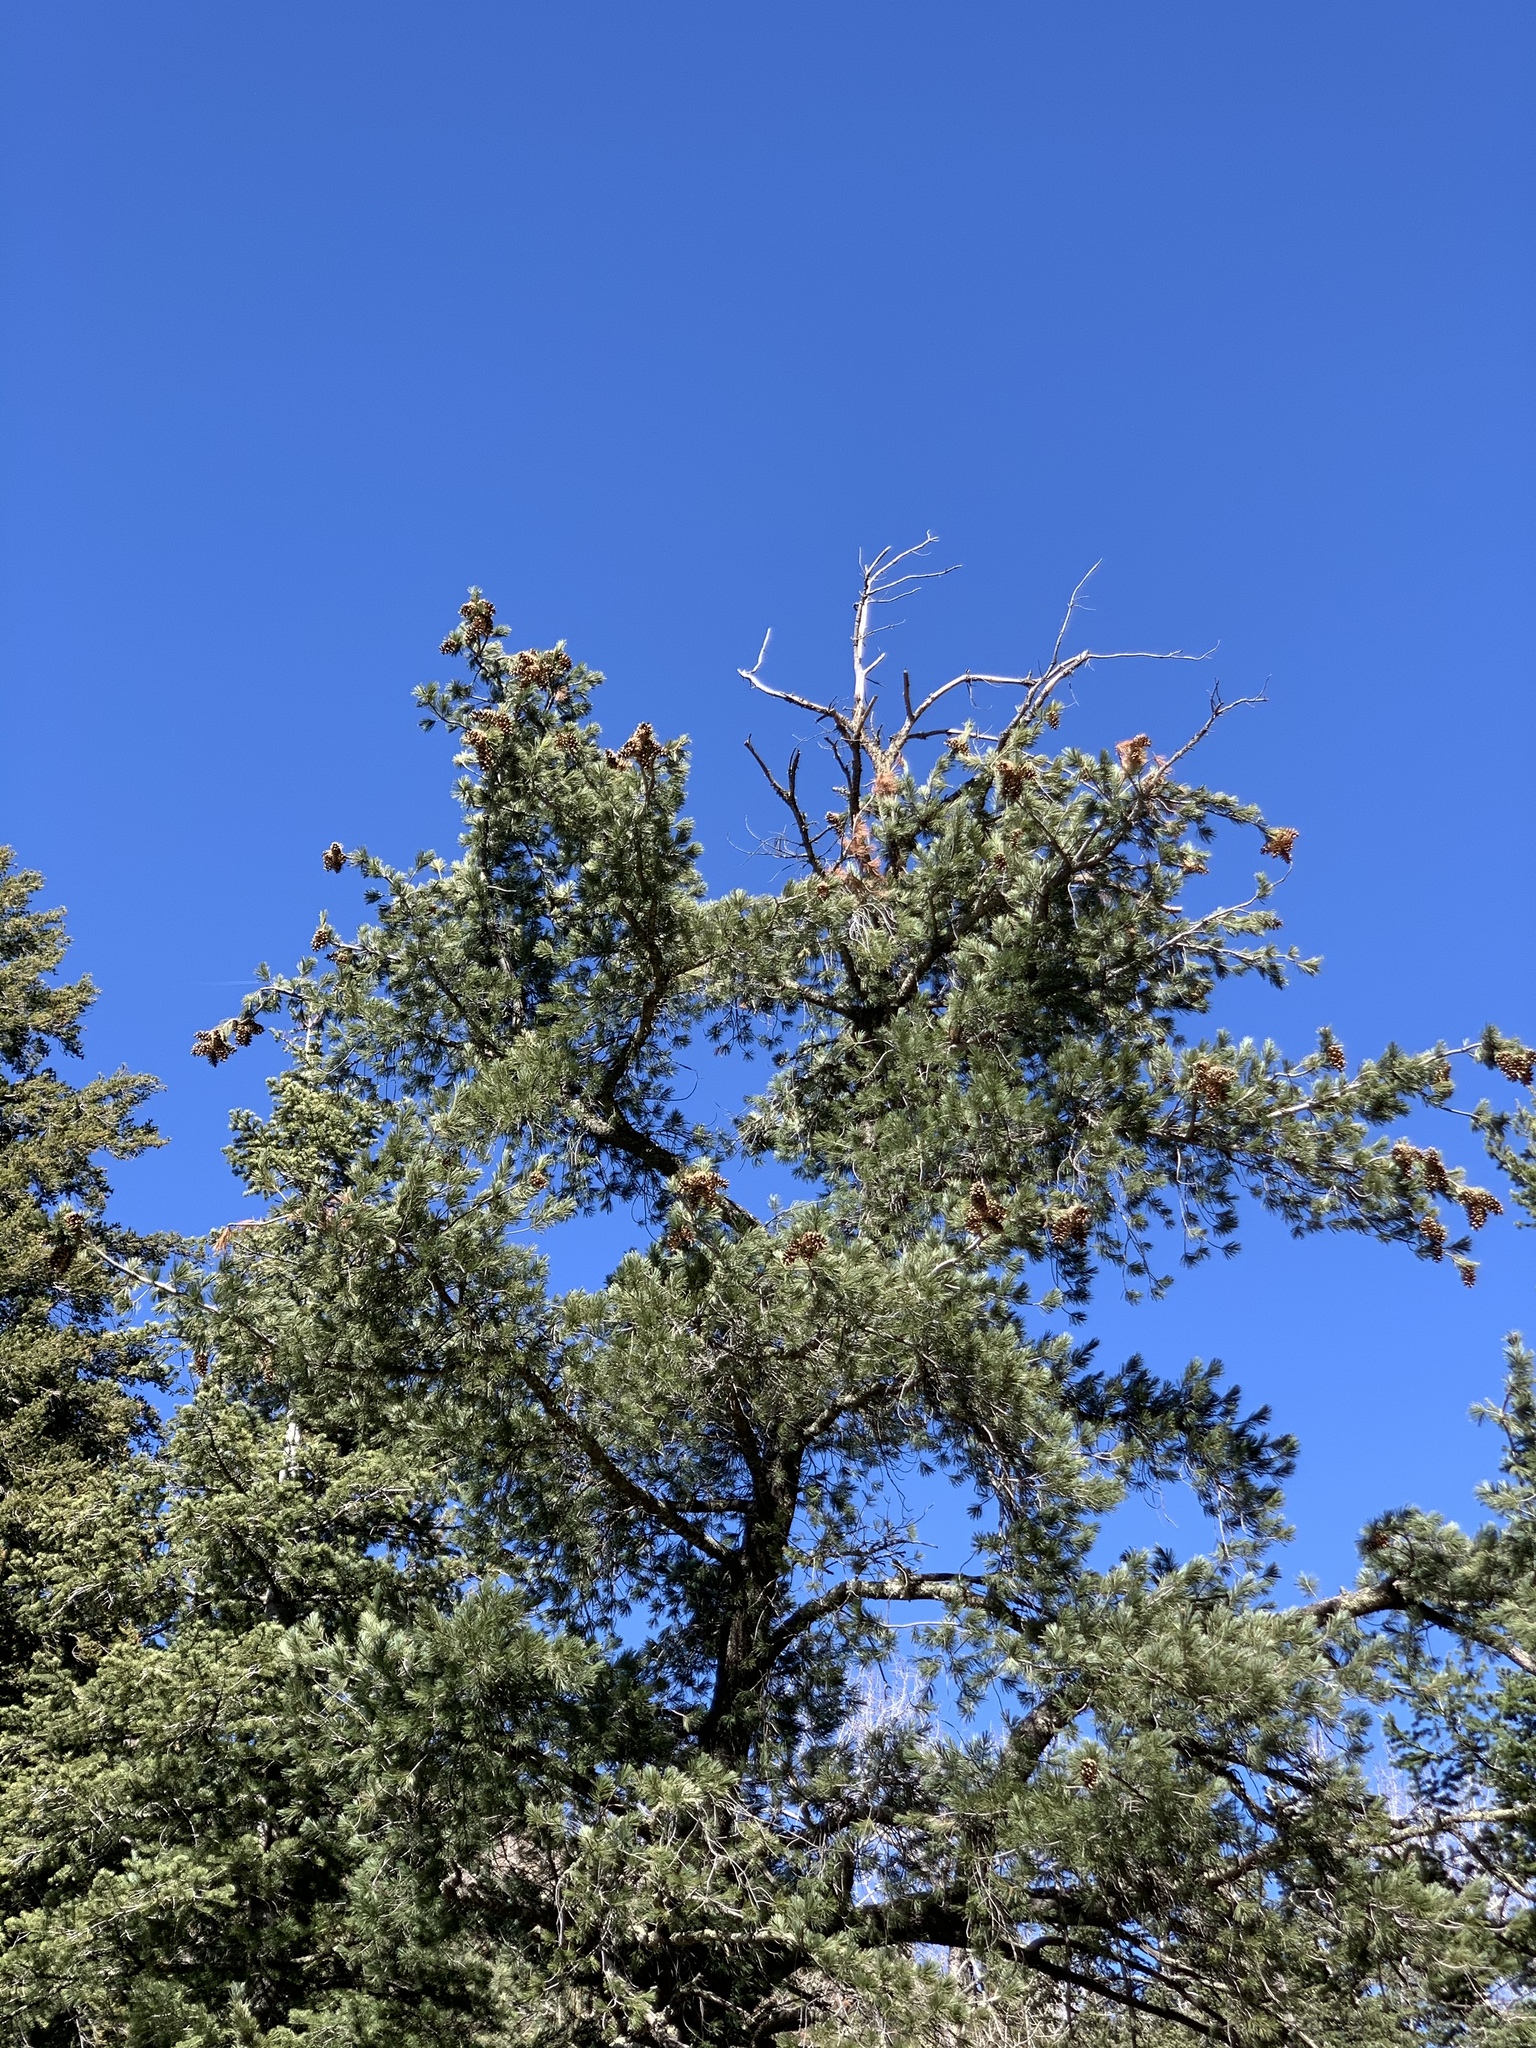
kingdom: Plantae
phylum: Tracheophyta
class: Pinopsida
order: Pinales
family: Pinaceae
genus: Pinus
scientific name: Pinus strobiformis
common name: Southwestern white pine
